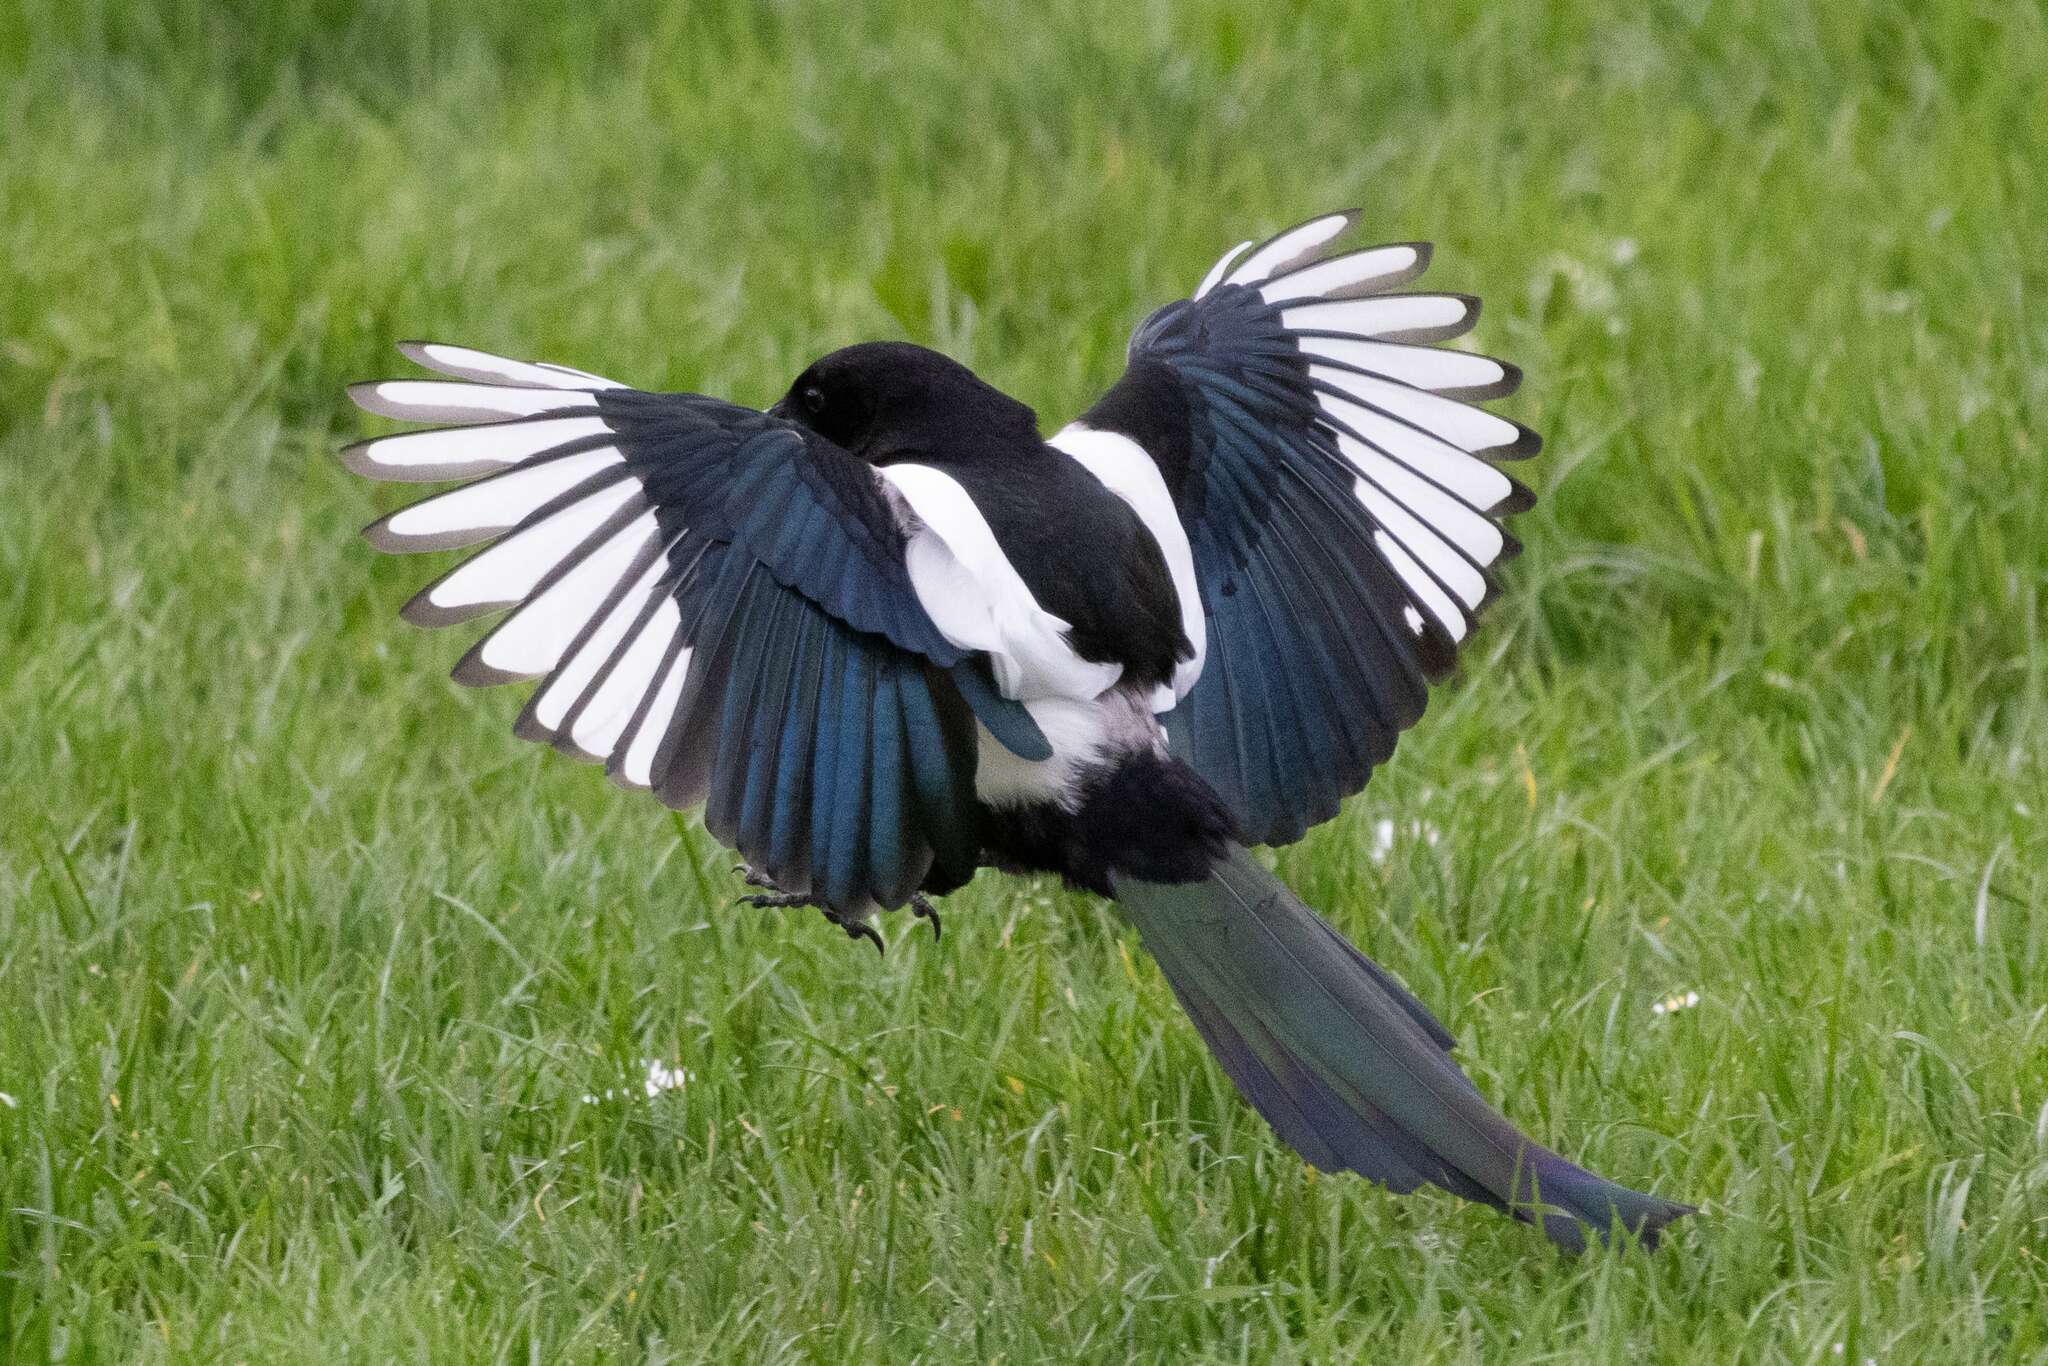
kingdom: Animalia
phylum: Chordata
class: Aves
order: Passeriformes
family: Corvidae
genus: Pica
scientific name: Pica pica
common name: Eurasian magpie
